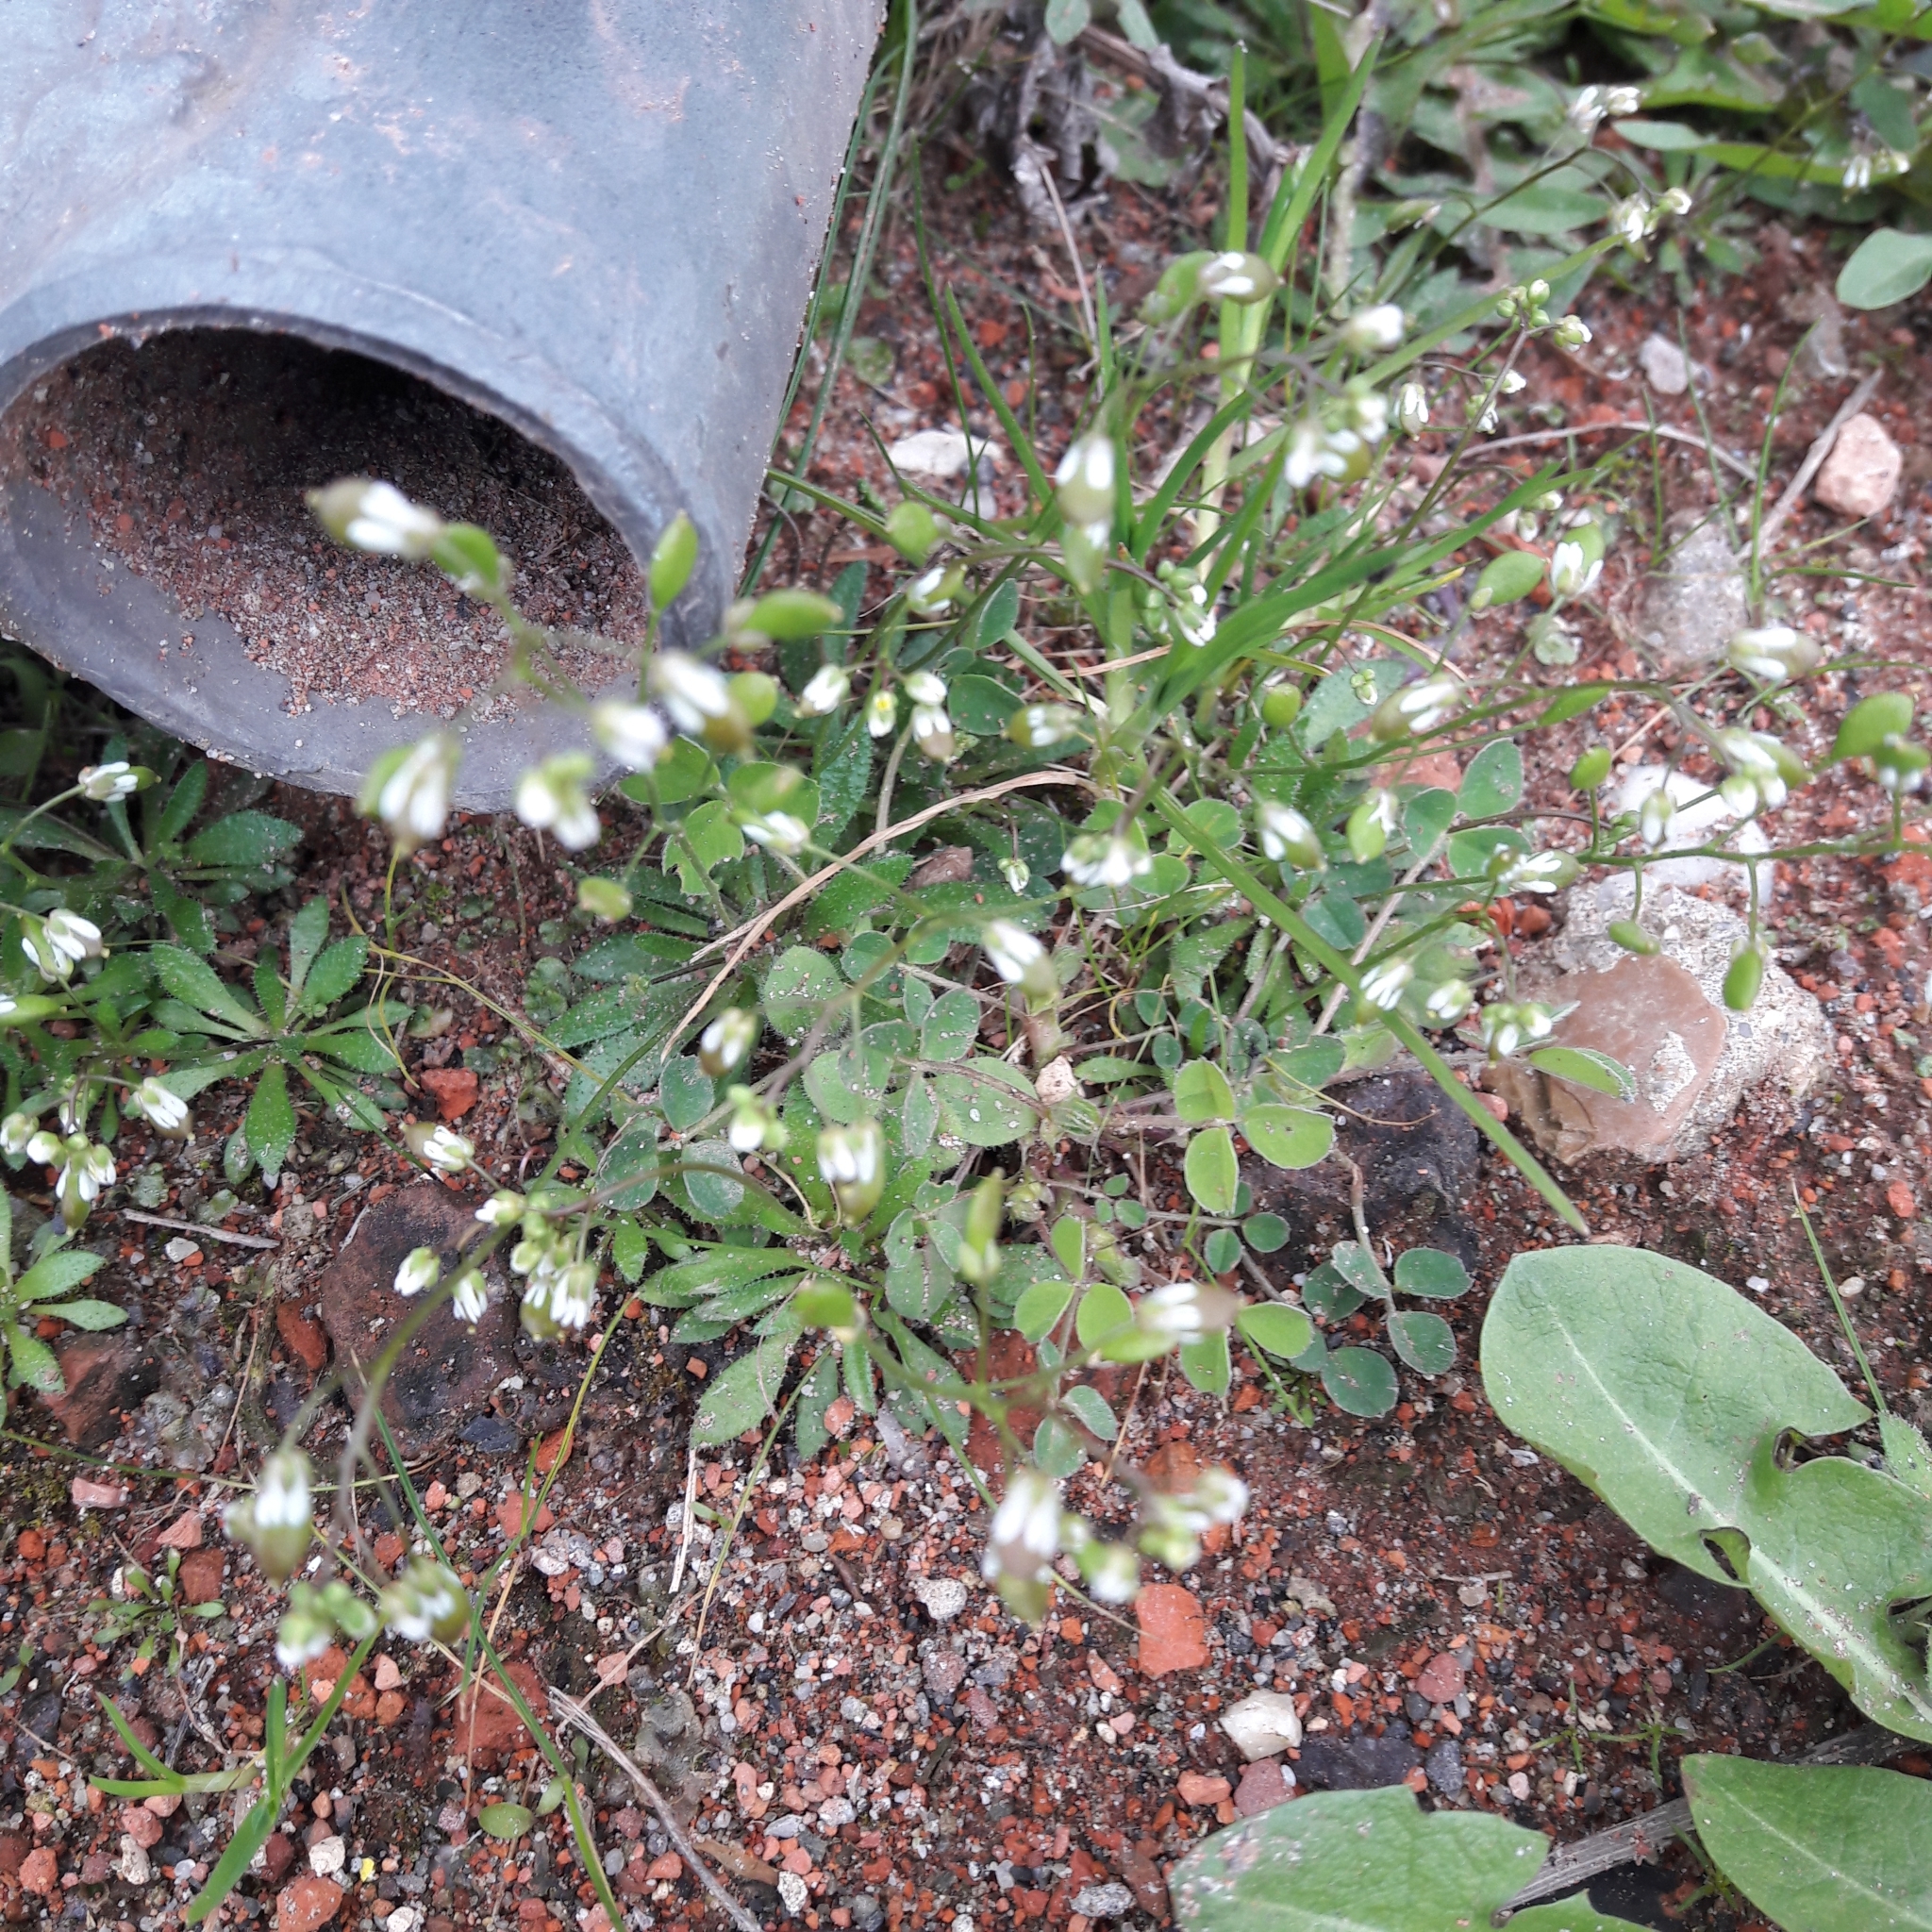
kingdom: Plantae
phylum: Tracheophyta
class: Magnoliopsida
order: Brassicales
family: Brassicaceae
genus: Draba
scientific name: Draba verna
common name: Spring draba
